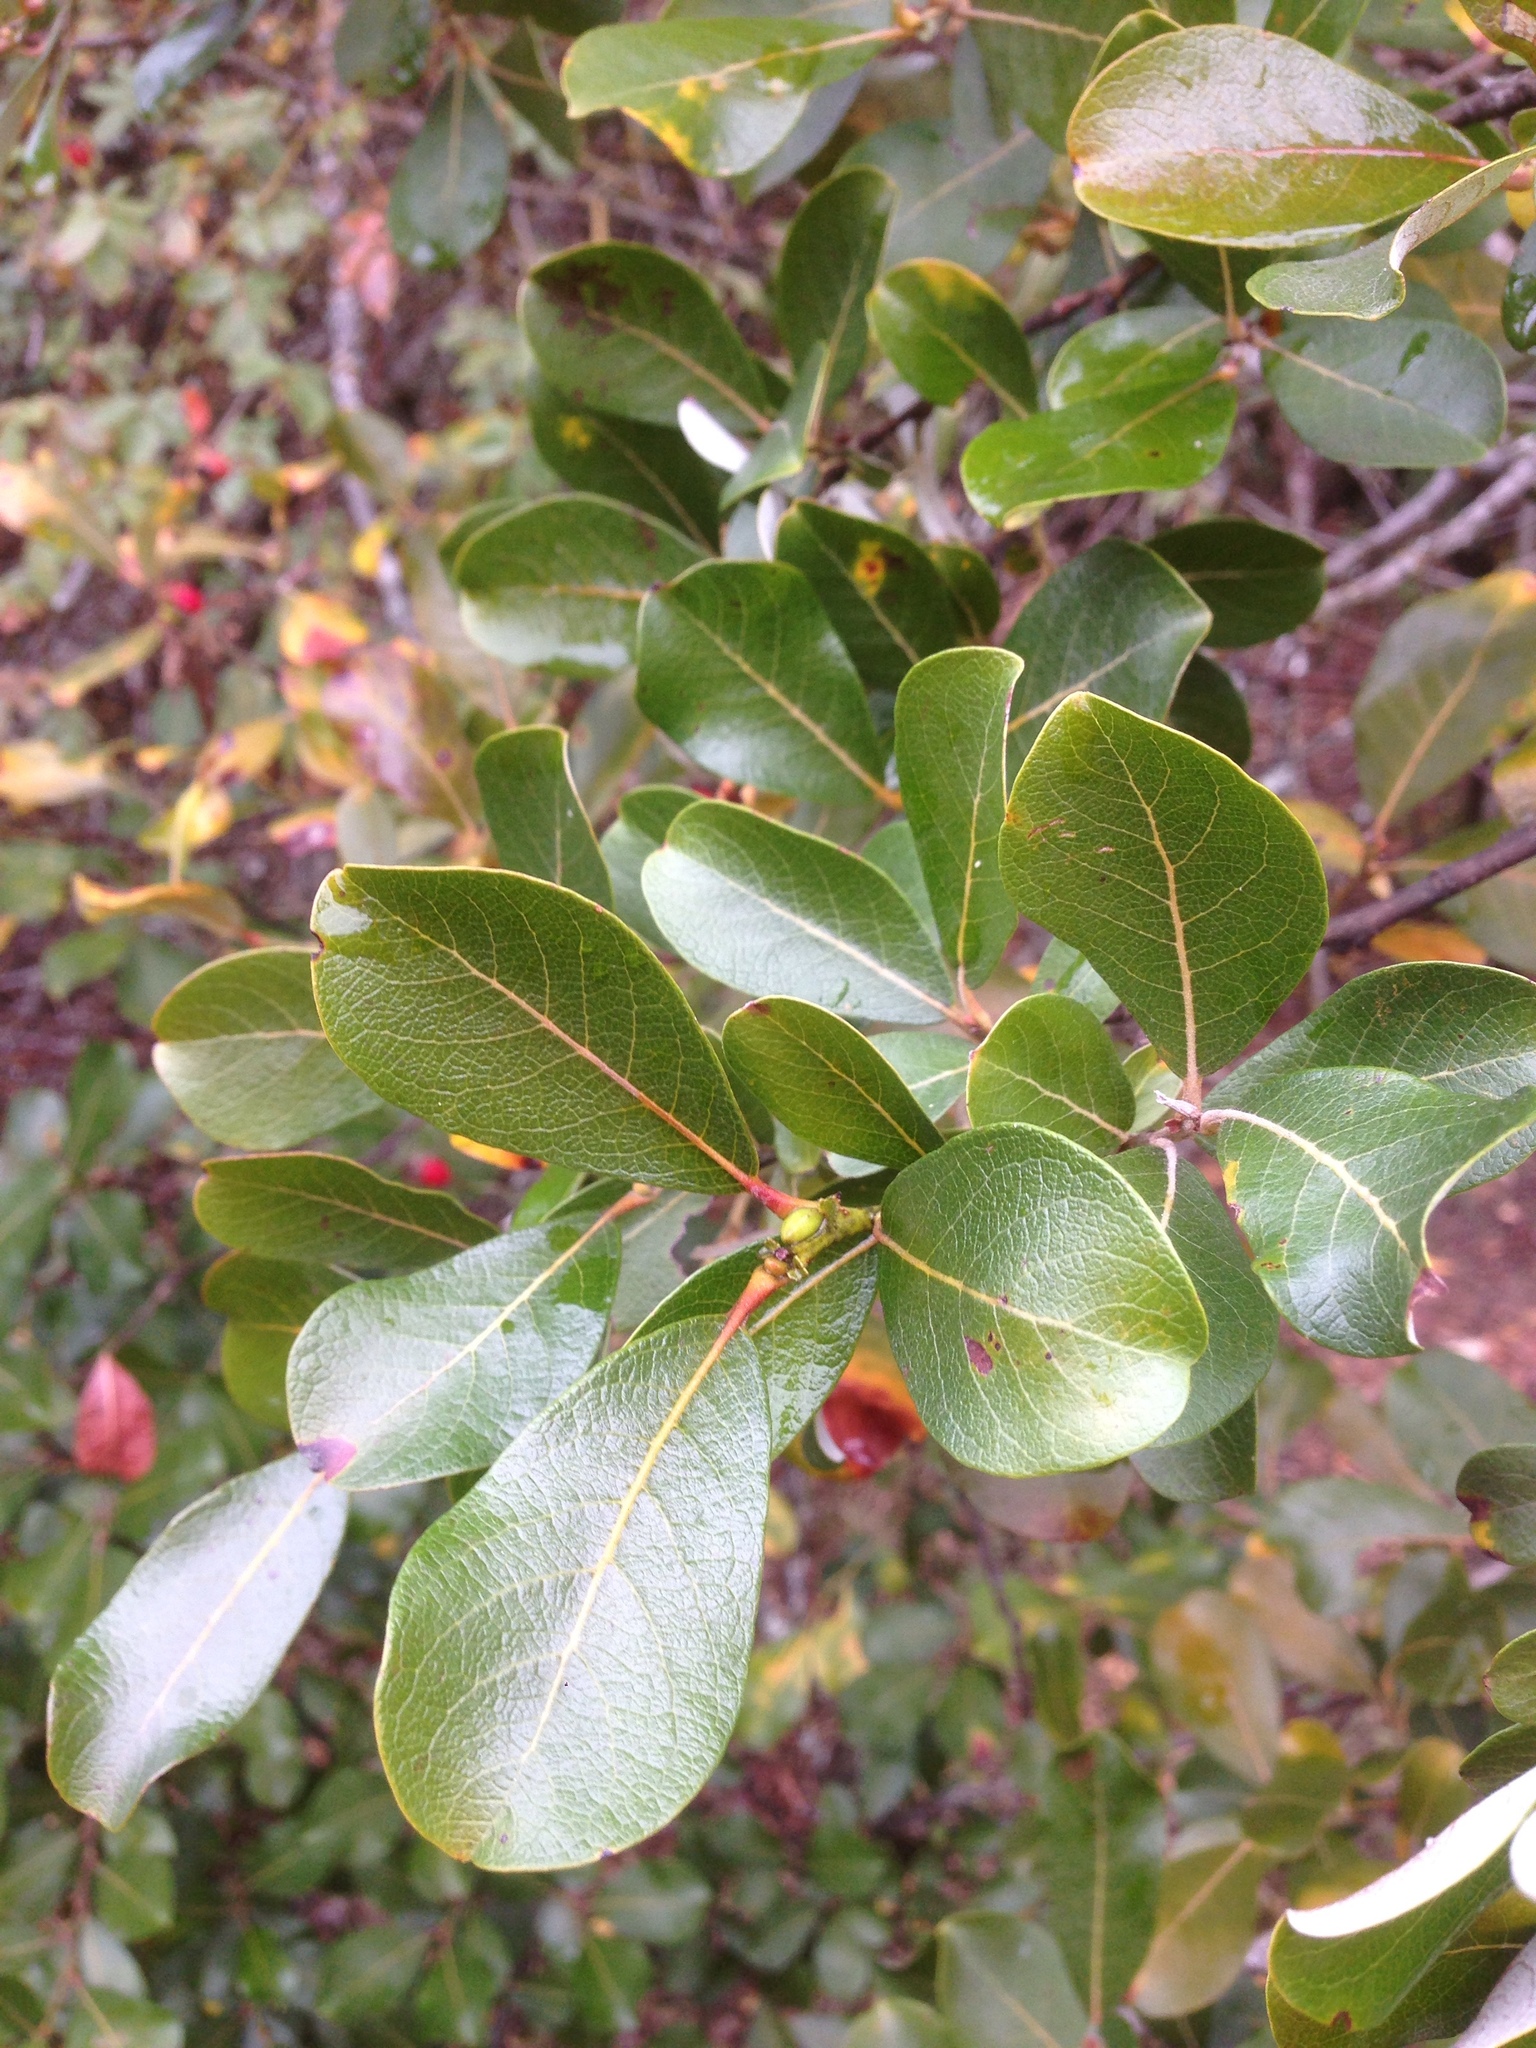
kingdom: Plantae
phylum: Tracheophyta
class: Magnoliopsida
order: Malpighiales
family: Salicaceae
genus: Salix
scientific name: Salix scouleriana
